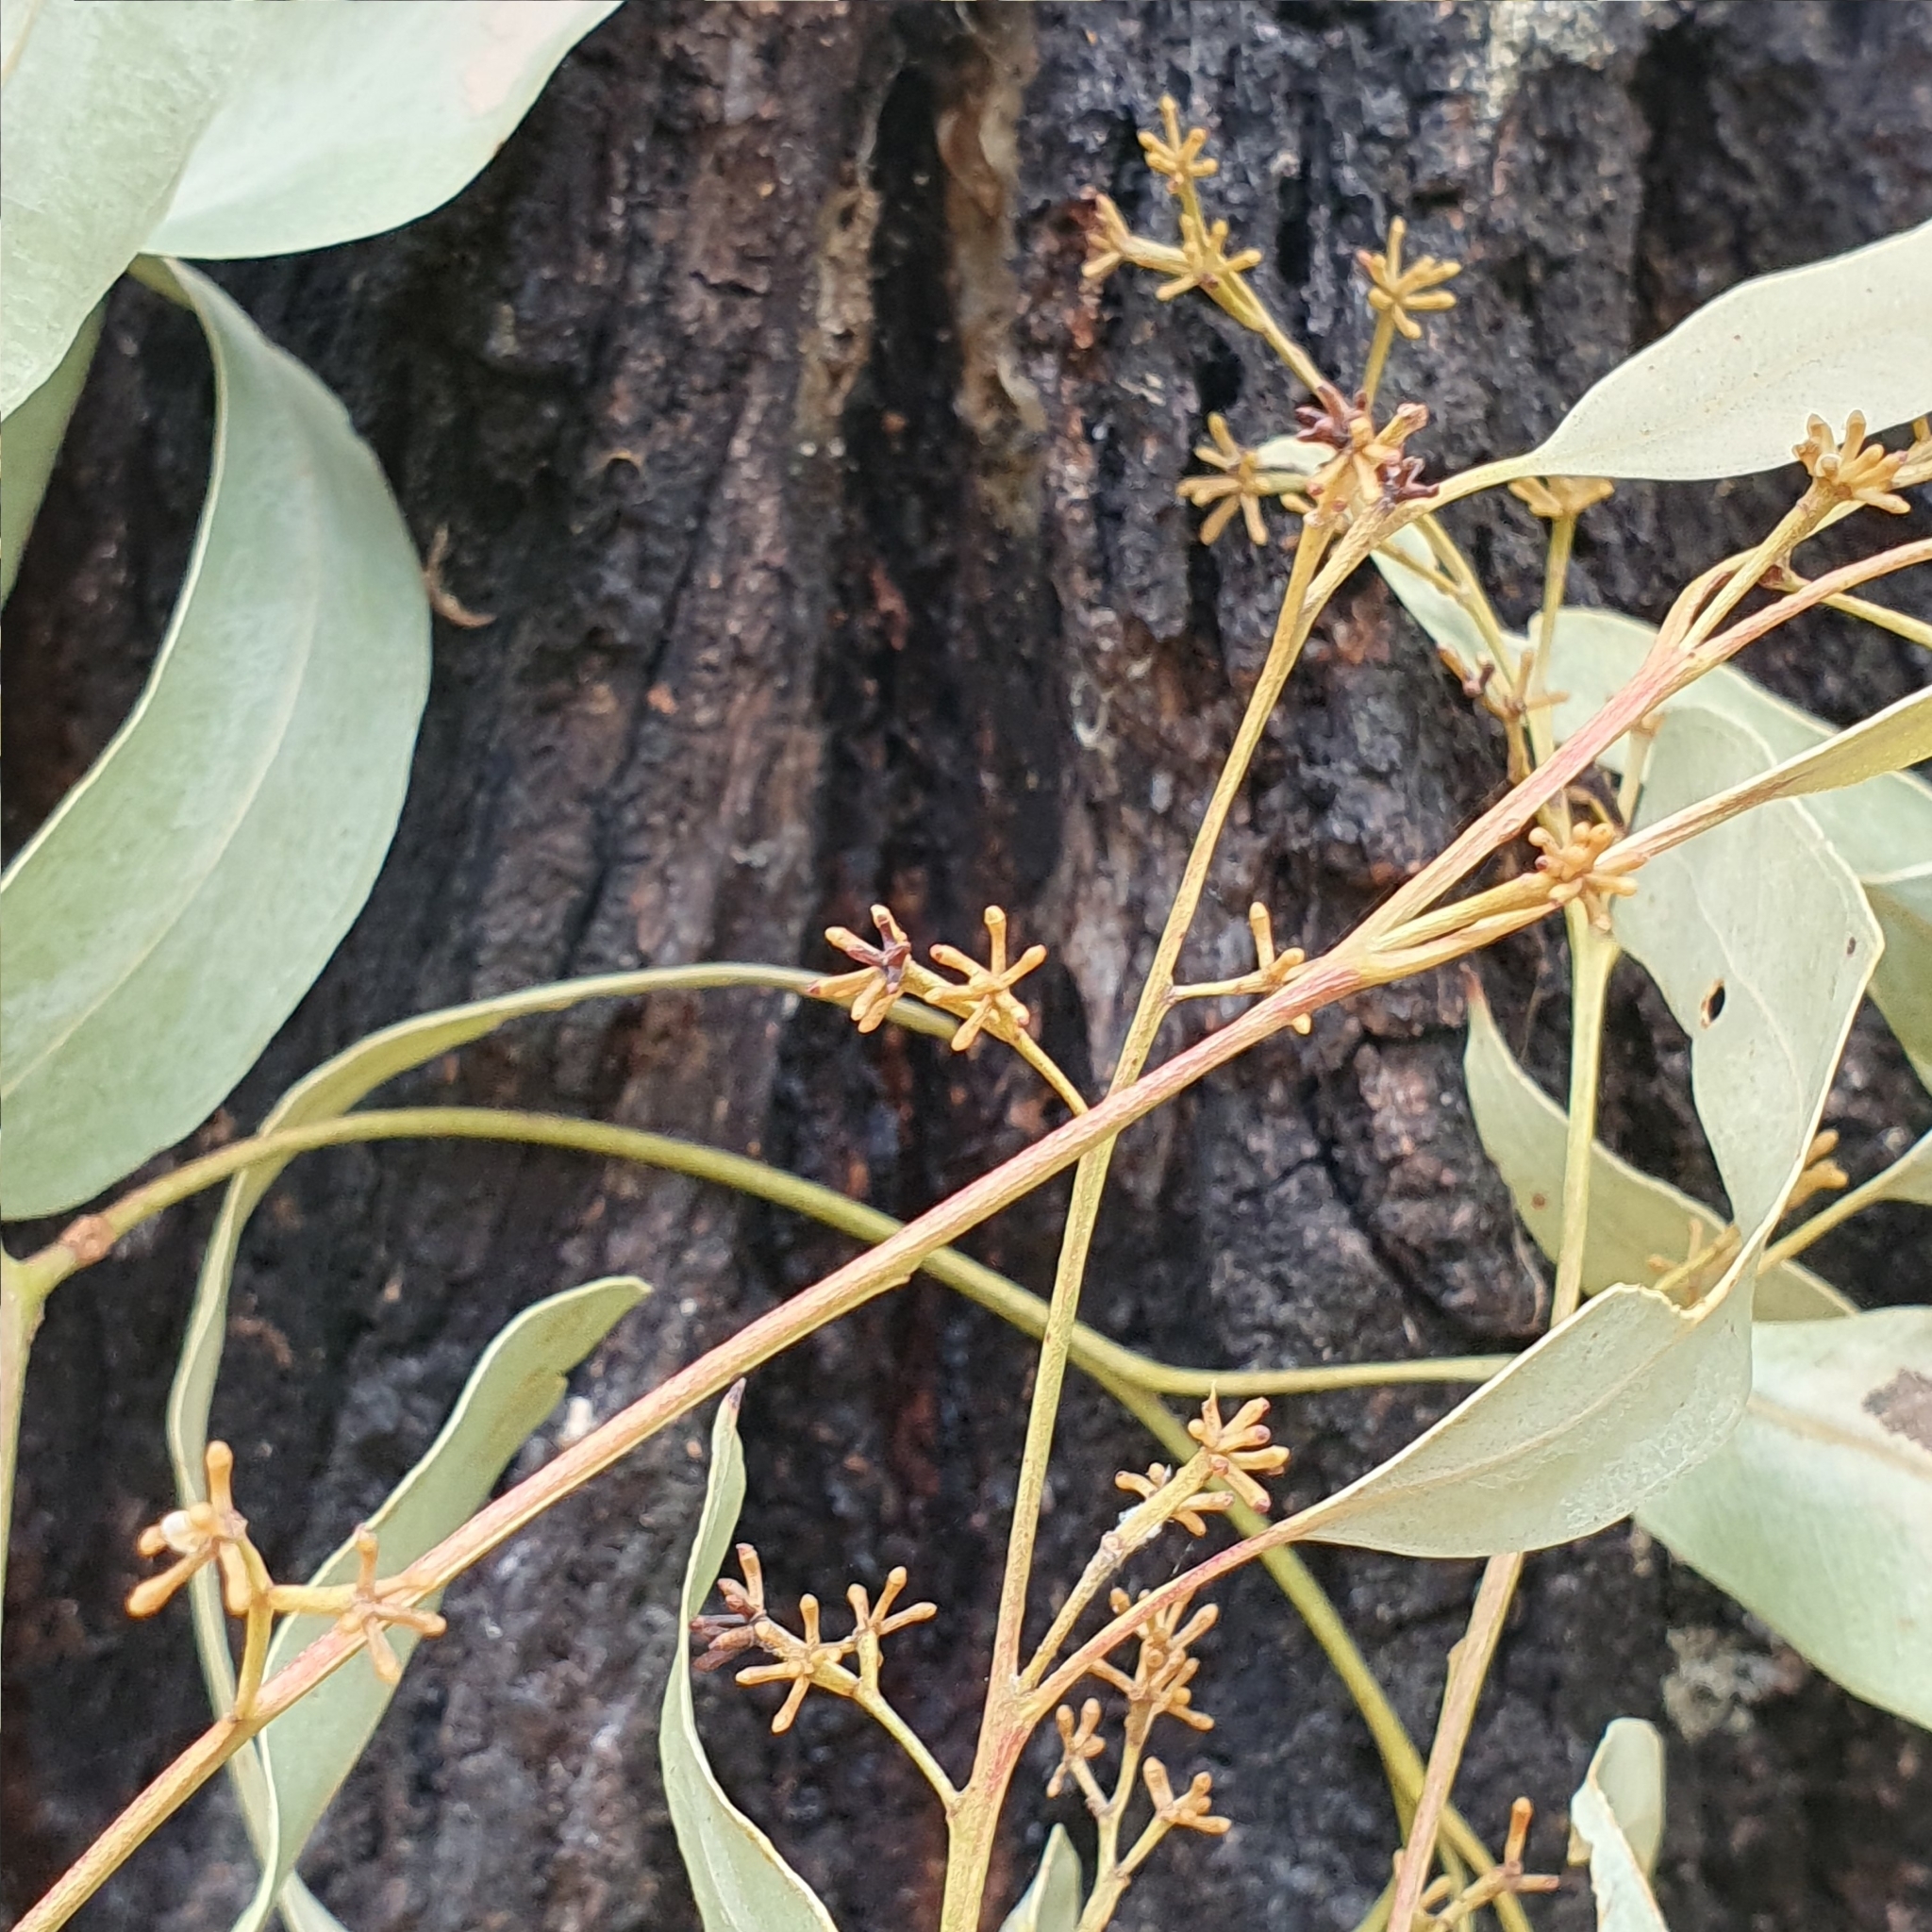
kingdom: Plantae
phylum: Tracheophyta
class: Magnoliopsida
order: Myrtales
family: Myrtaceae
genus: Eucalyptus
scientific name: Eucalyptus crebra
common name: Narrowleaf red ironbark
